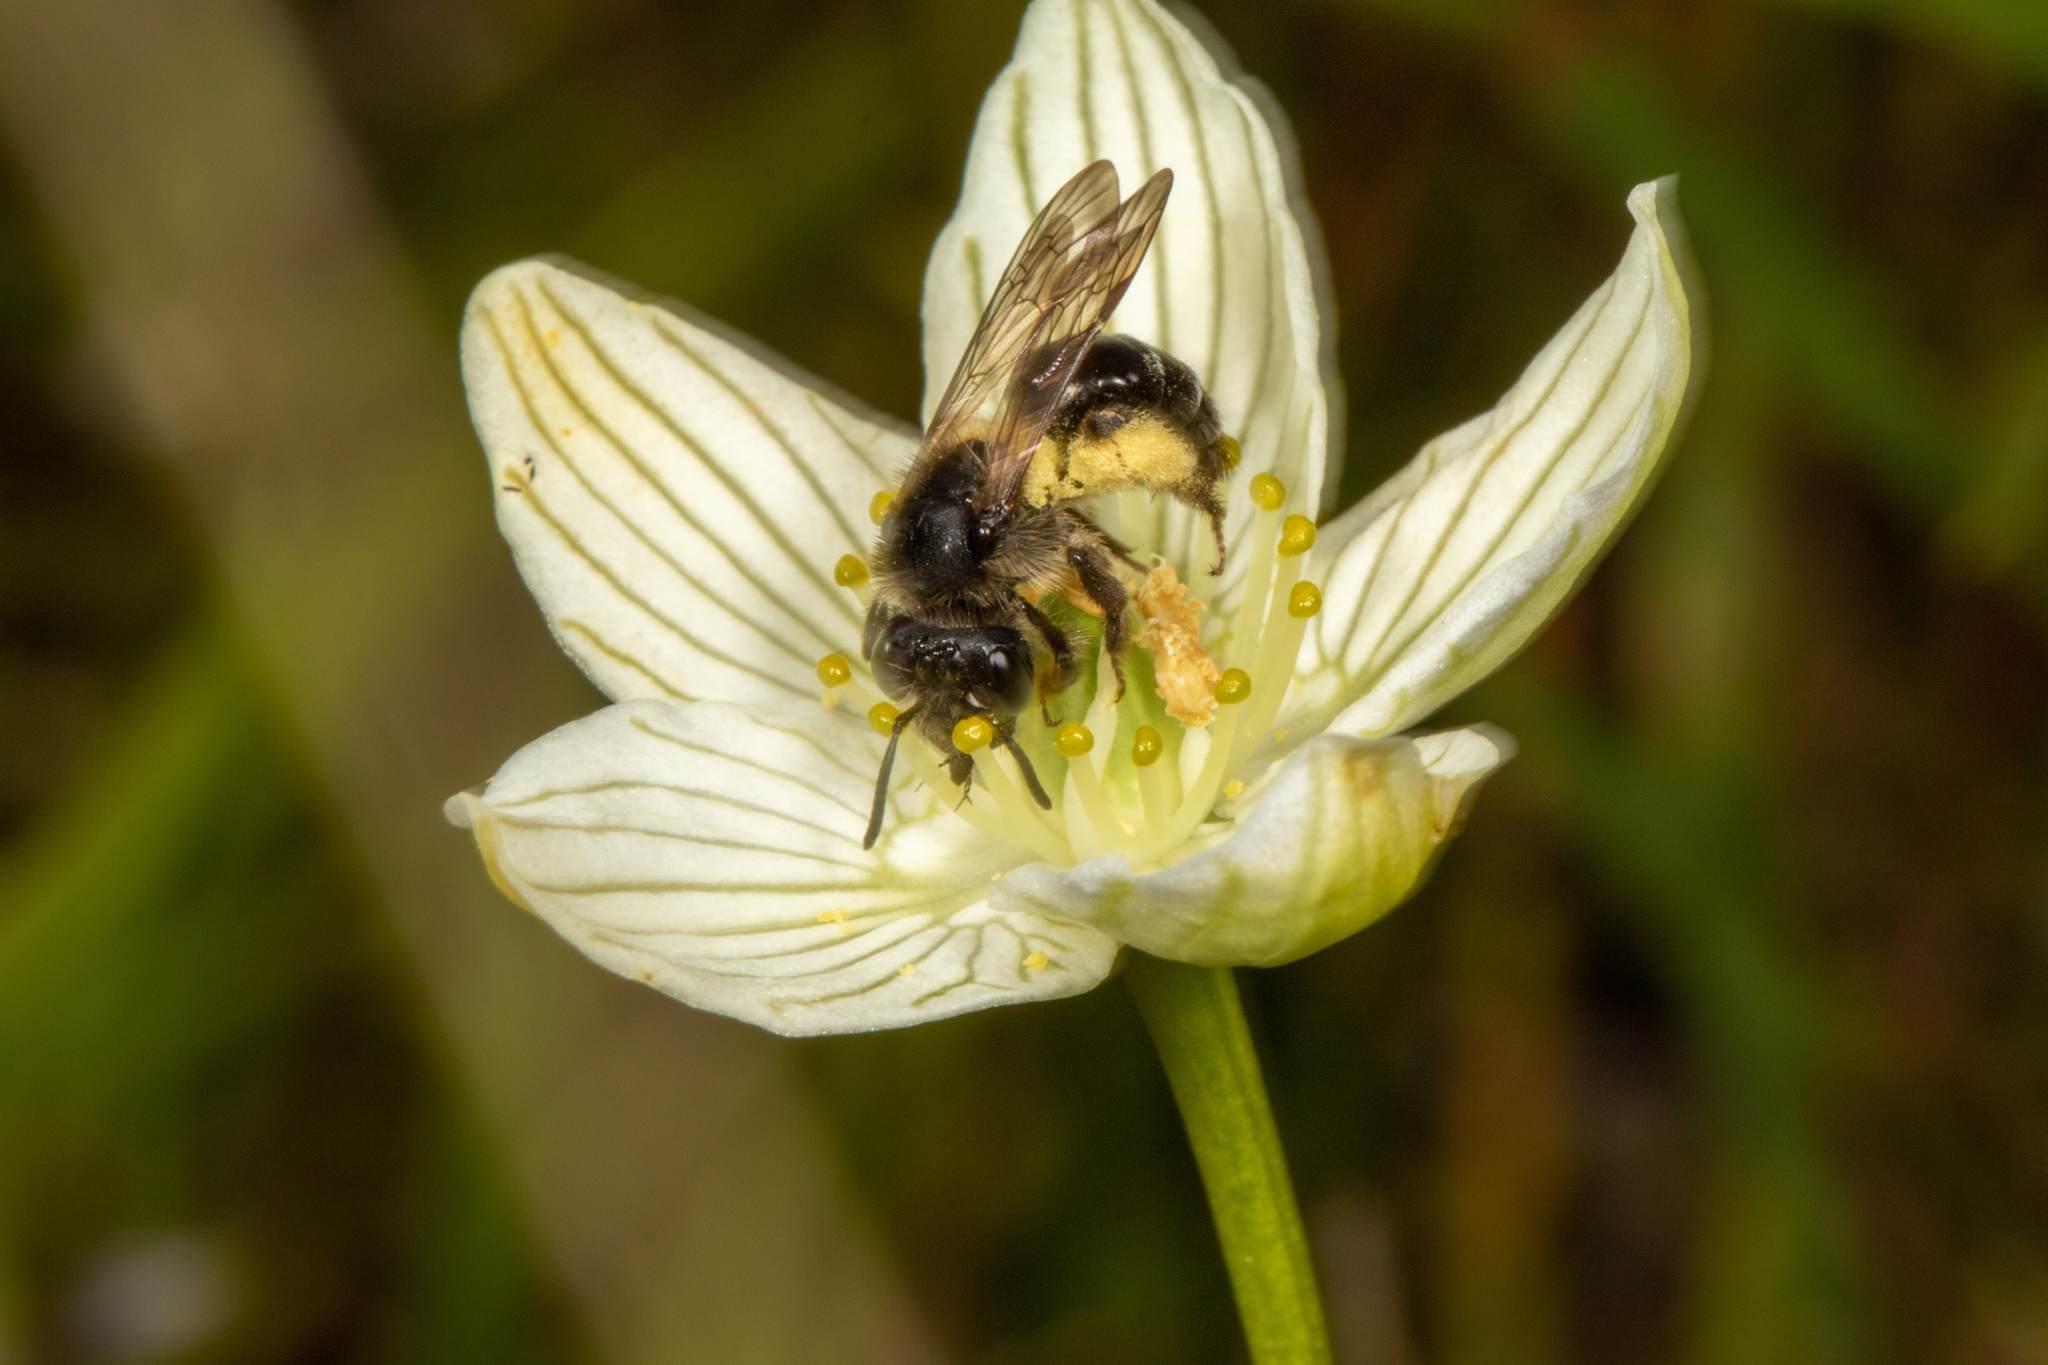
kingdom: Animalia
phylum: Arthropoda
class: Insecta
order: Hymenoptera
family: Andrenidae
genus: Andrena
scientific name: Andrena parnassiae
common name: Parnassia miner
